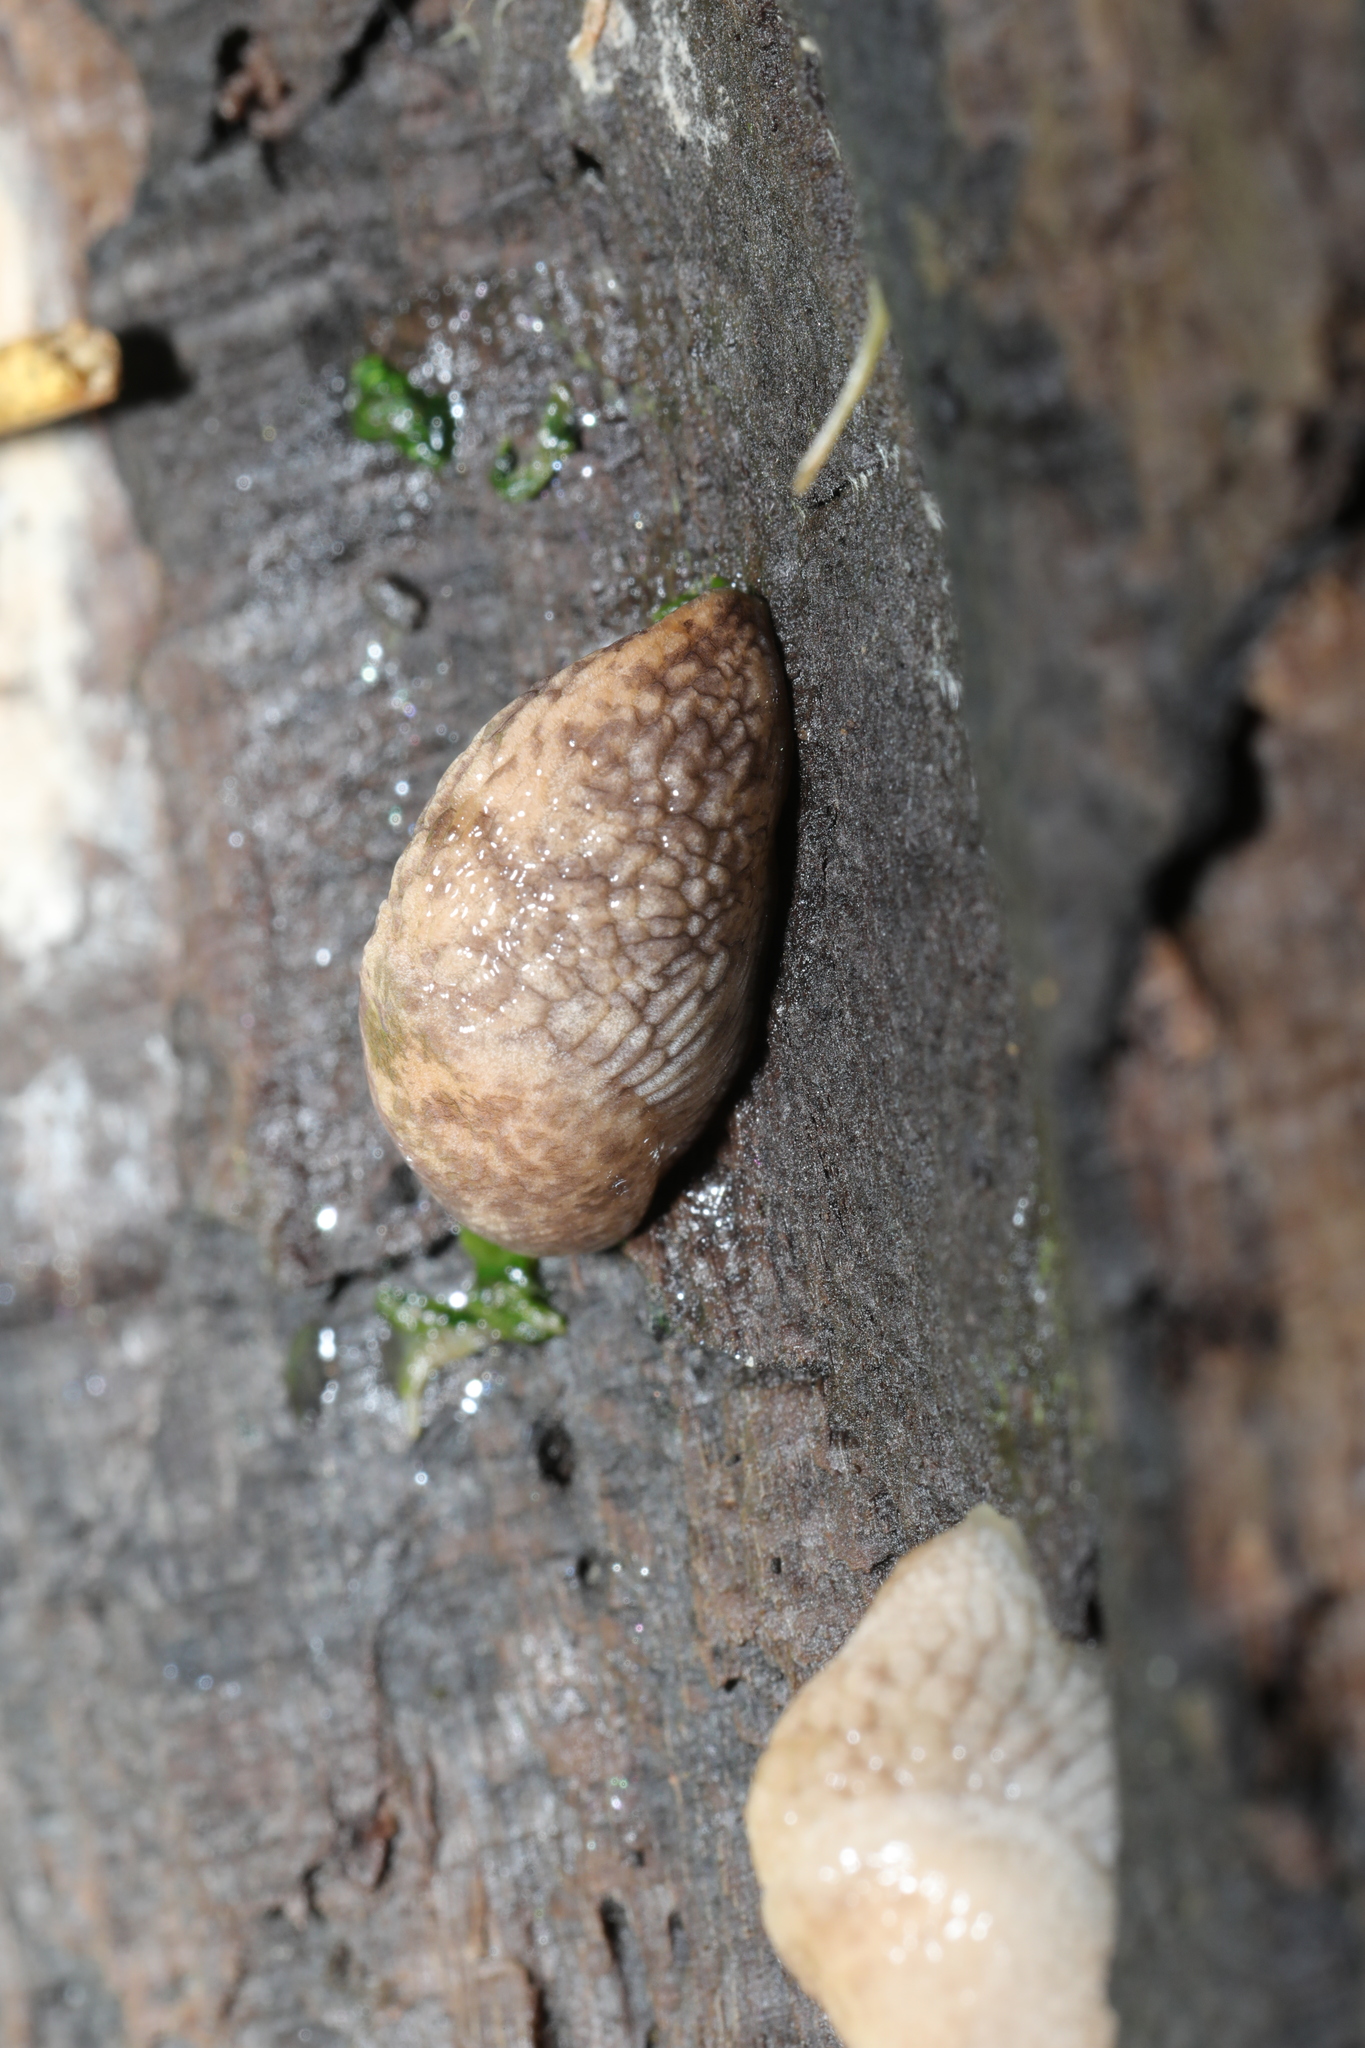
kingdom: Animalia
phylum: Mollusca
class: Gastropoda
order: Stylommatophora
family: Agriolimacidae
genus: Deroceras
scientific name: Deroceras reticulatum
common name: Gray field slug
